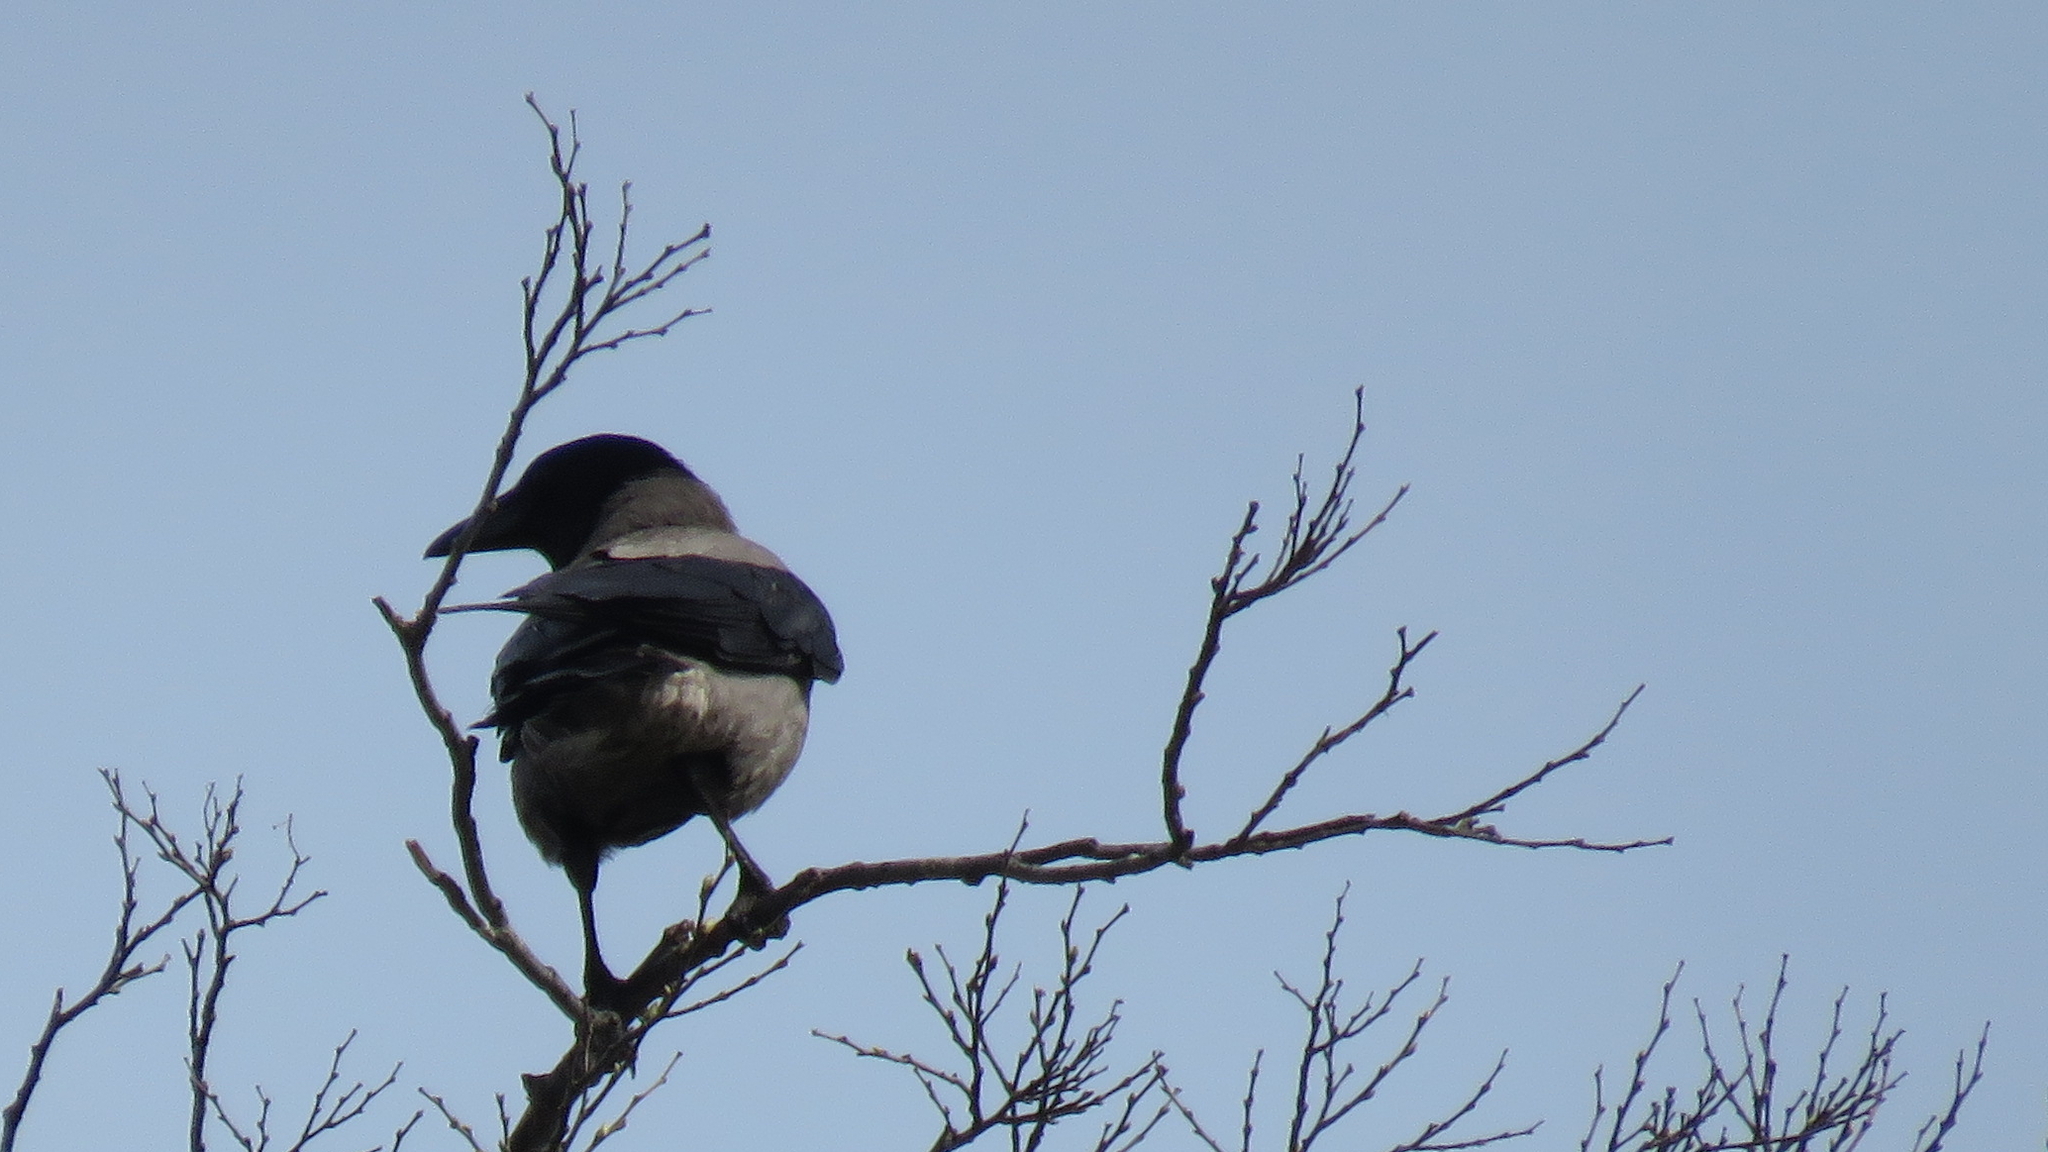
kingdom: Animalia
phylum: Chordata
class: Aves
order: Passeriformes
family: Corvidae
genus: Corvus
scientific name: Corvus cornix
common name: Hooded crow
